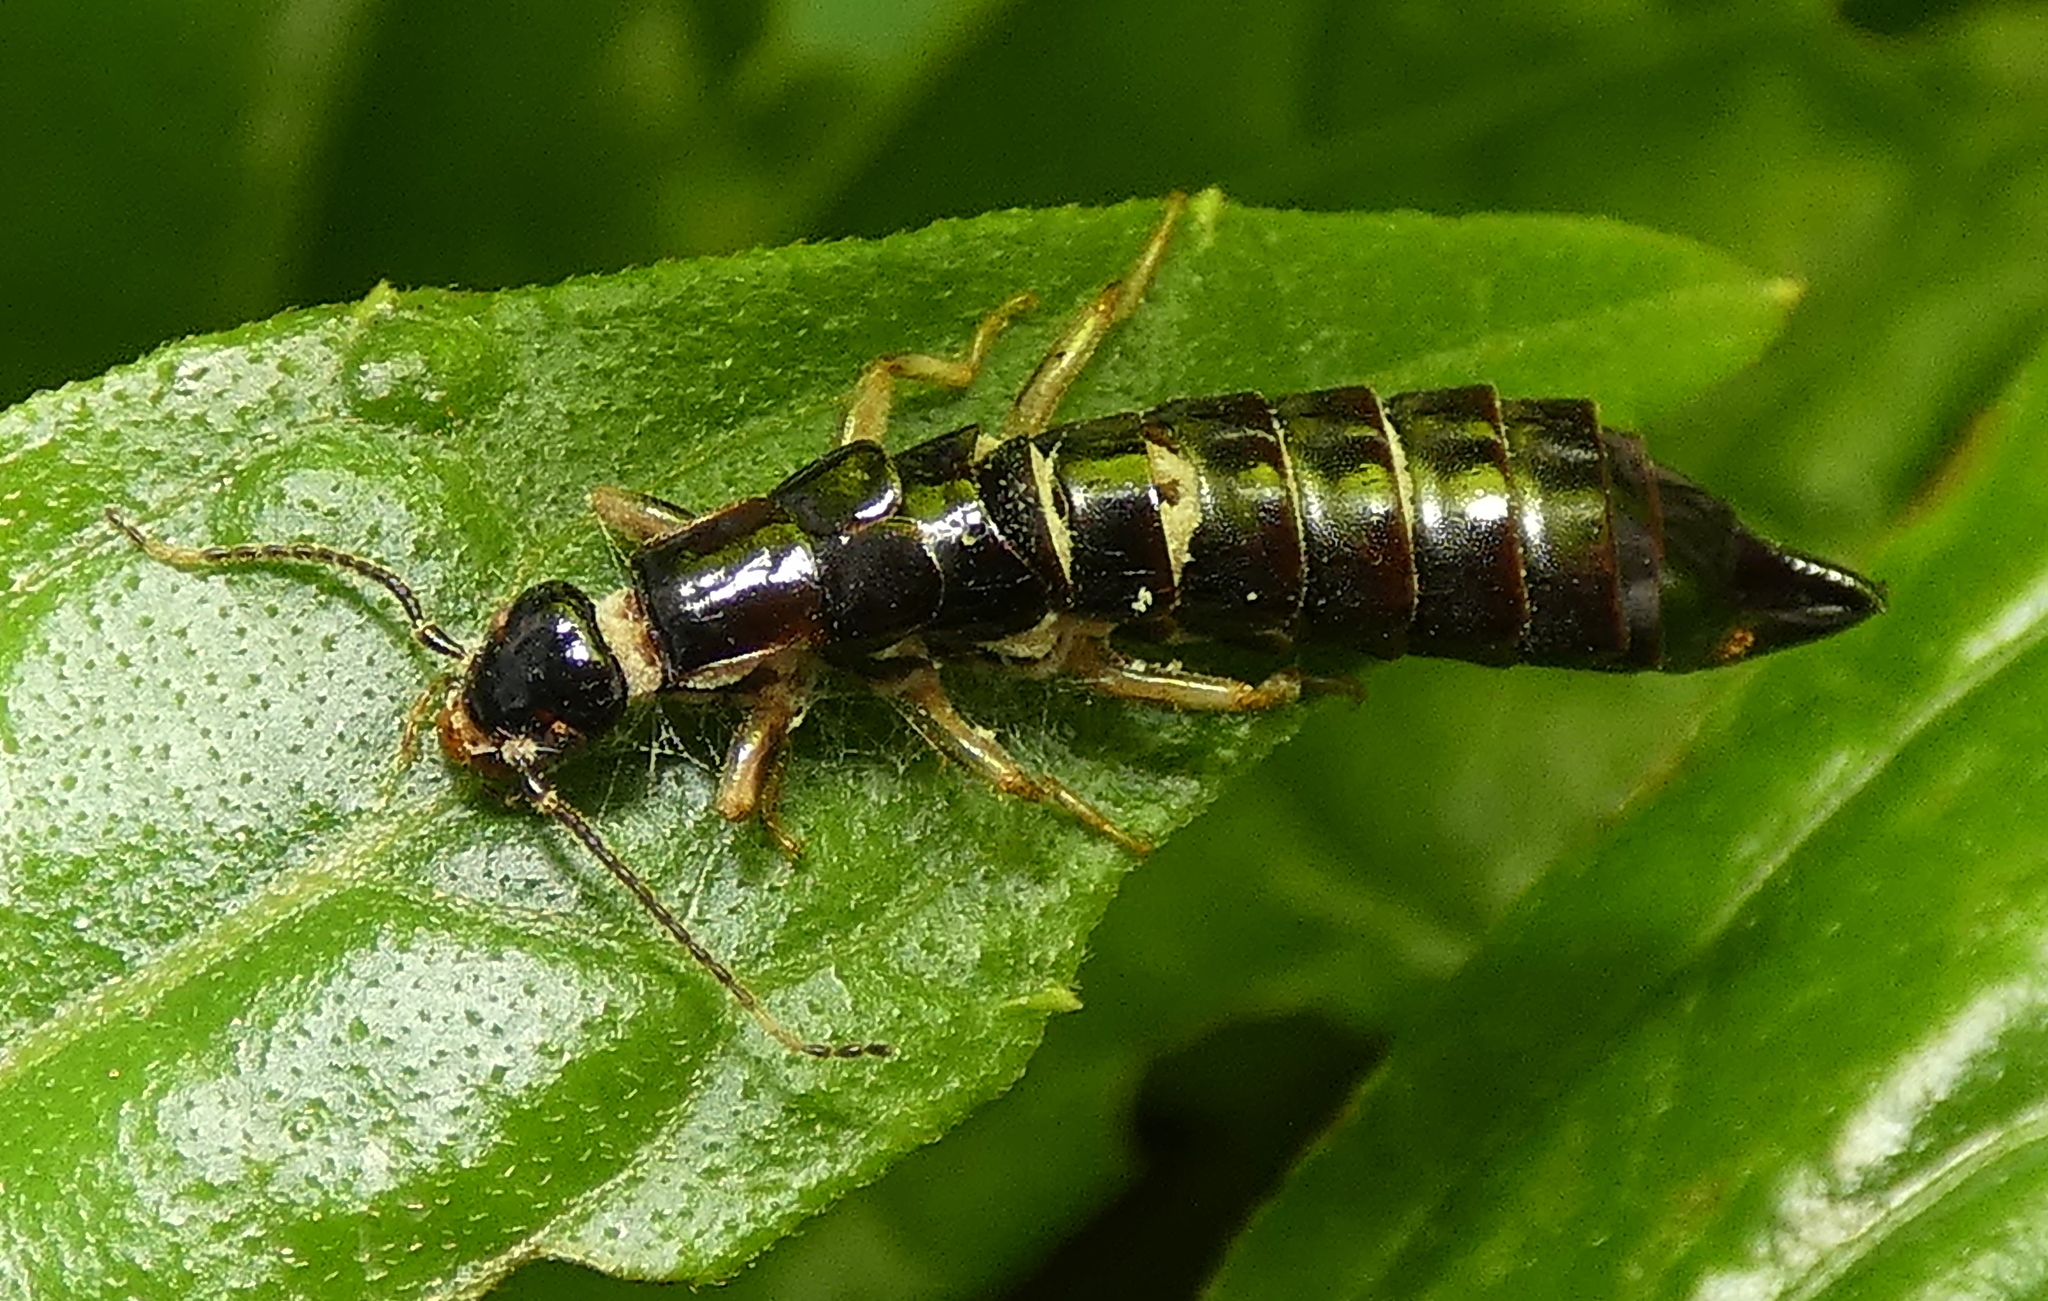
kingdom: Animalia
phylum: Arthropoda
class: Insecta
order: Dermaptera
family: Anisolabididae
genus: Euborellia
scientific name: Euborellia annulipes
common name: Ringlegged earwig
